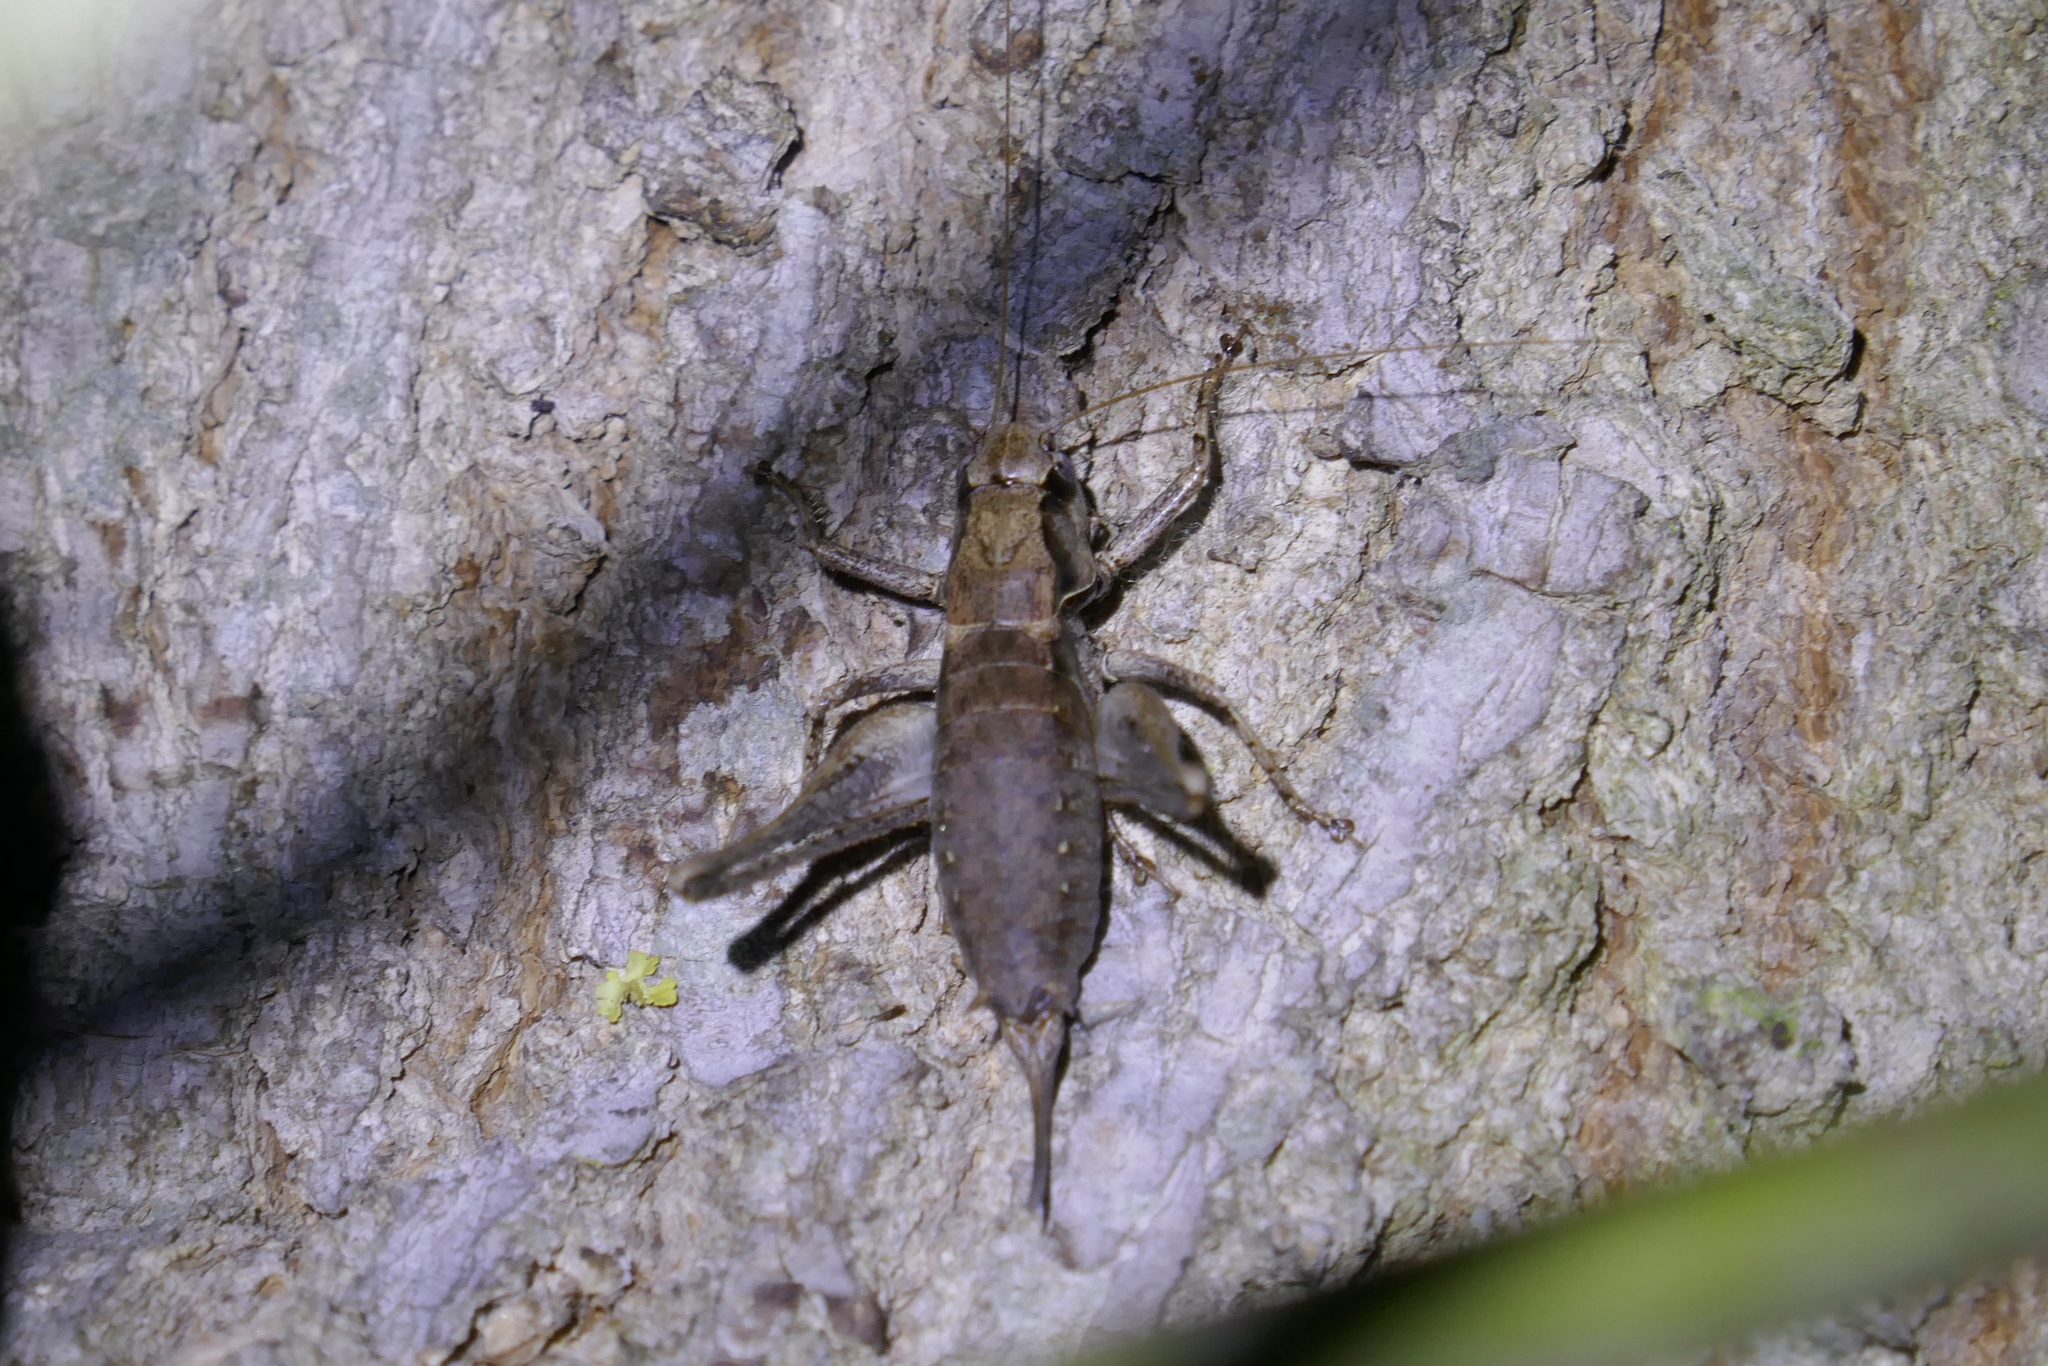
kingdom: Animalia
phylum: Arthropoda
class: Insecta
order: Orthoptera
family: Tettigoniidae
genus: Pholidoptera
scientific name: Pholidoptera griseoaptera
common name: Dark bush-cricket
